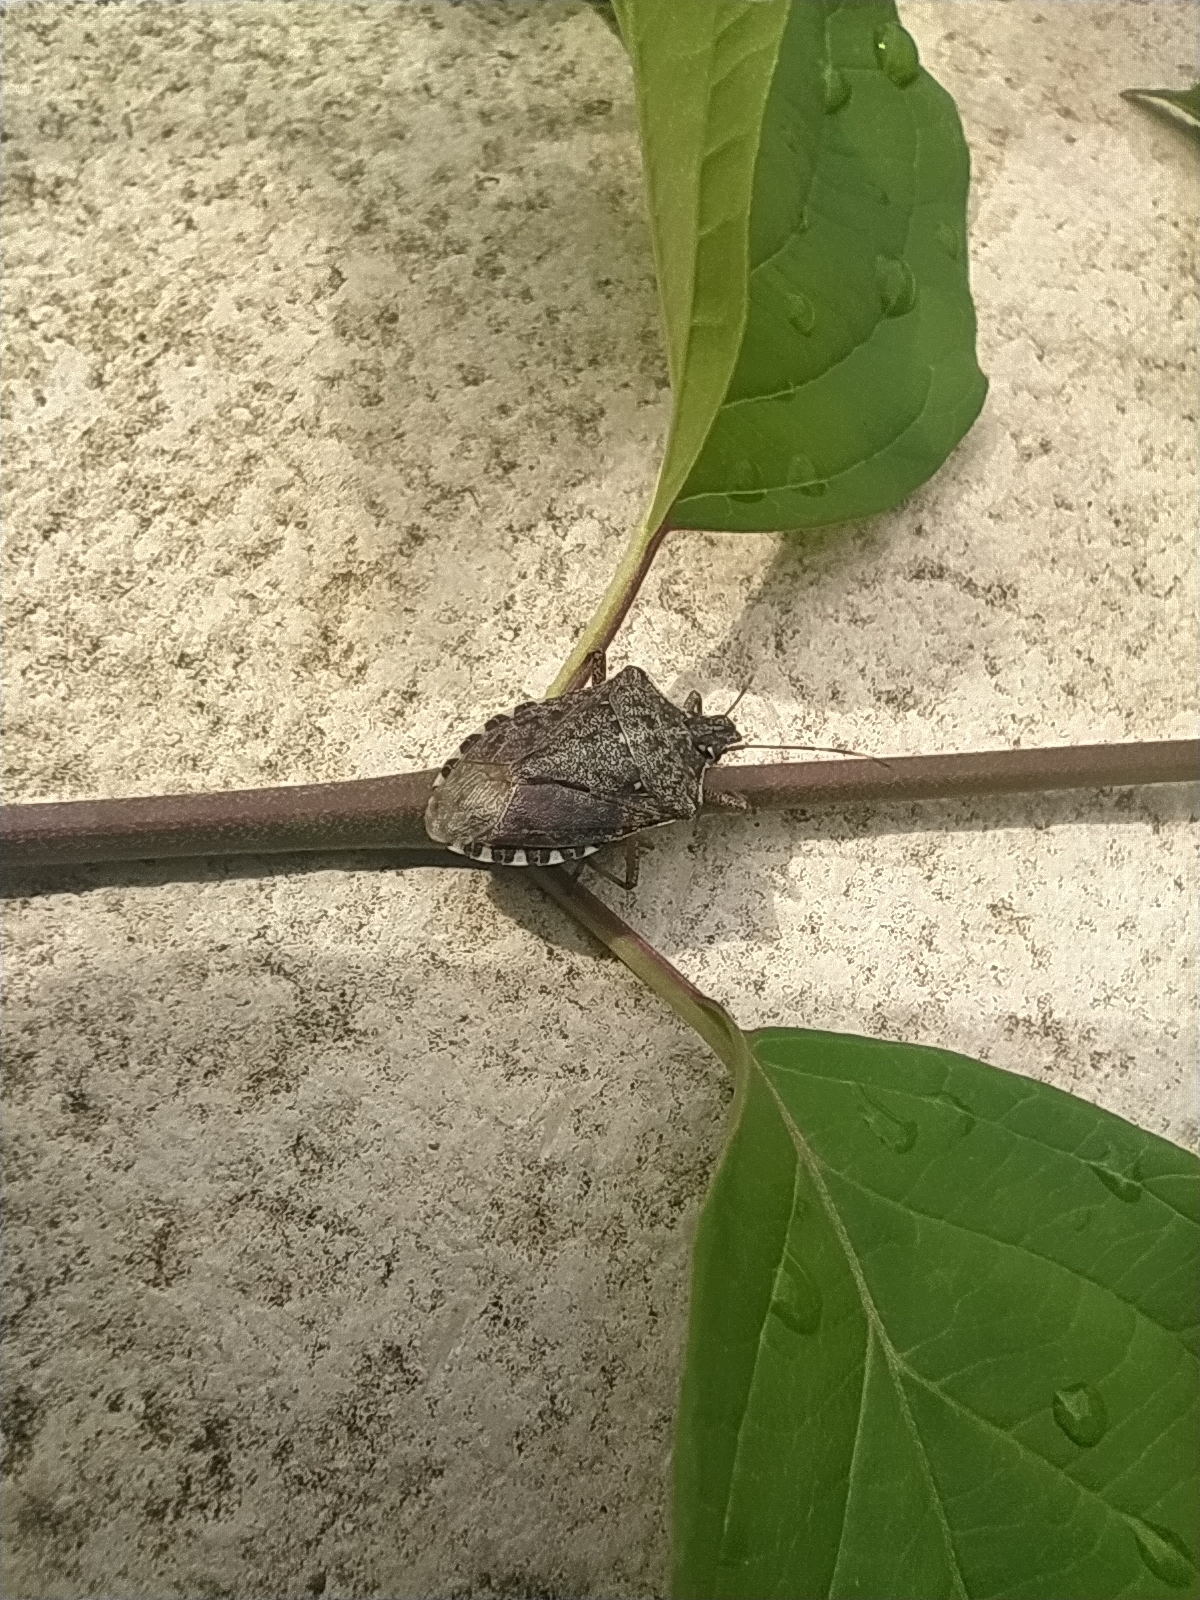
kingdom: Animalia
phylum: Arthropoda
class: Insecta
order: Hemiptera
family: Pentatomidae
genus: Halyomorpha
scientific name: Halyomorpha halys
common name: Brown marmorated stink bug
